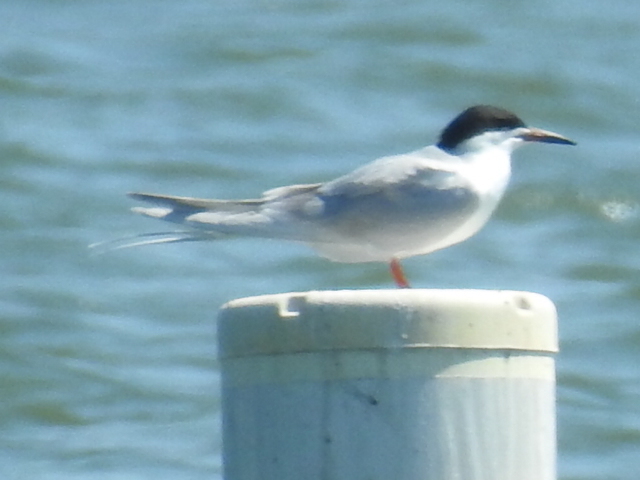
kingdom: Animalia
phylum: Chordata
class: Aves
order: Charadriiformes
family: Laridae
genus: Sterna
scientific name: Sterna forsteri
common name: Forster's tern
